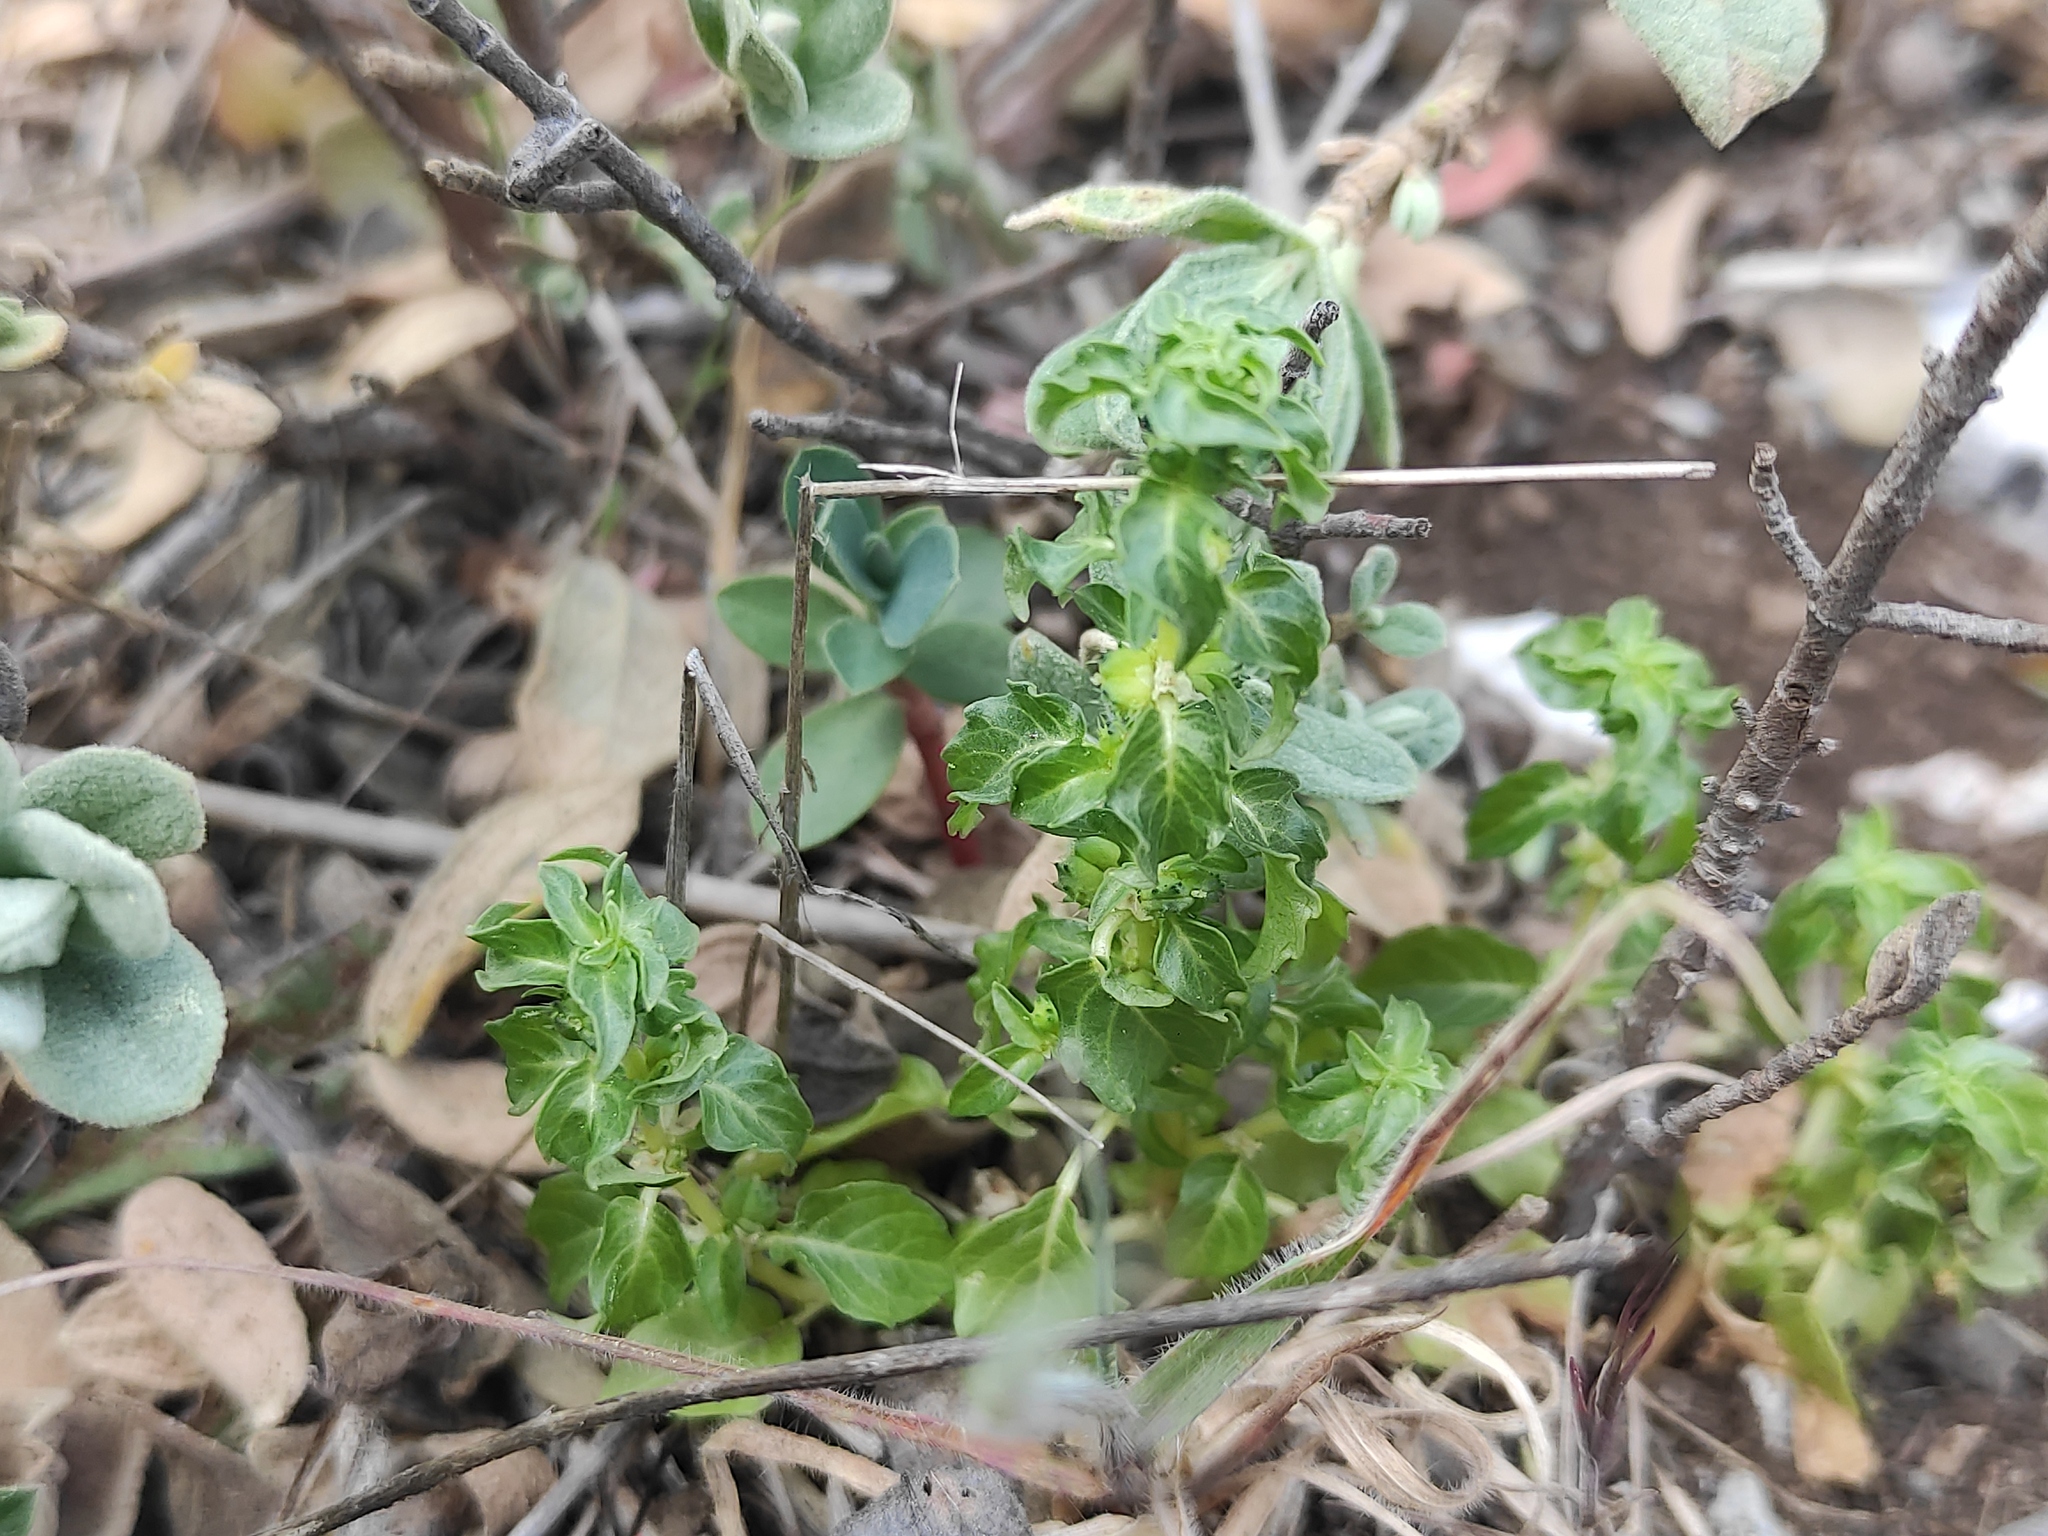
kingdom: Plantae
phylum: Tracheophyta
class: Magnoliopsida
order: Malpighiales
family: Euphorbiaceae
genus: Mercurialis
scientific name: Mercurialis huetii
